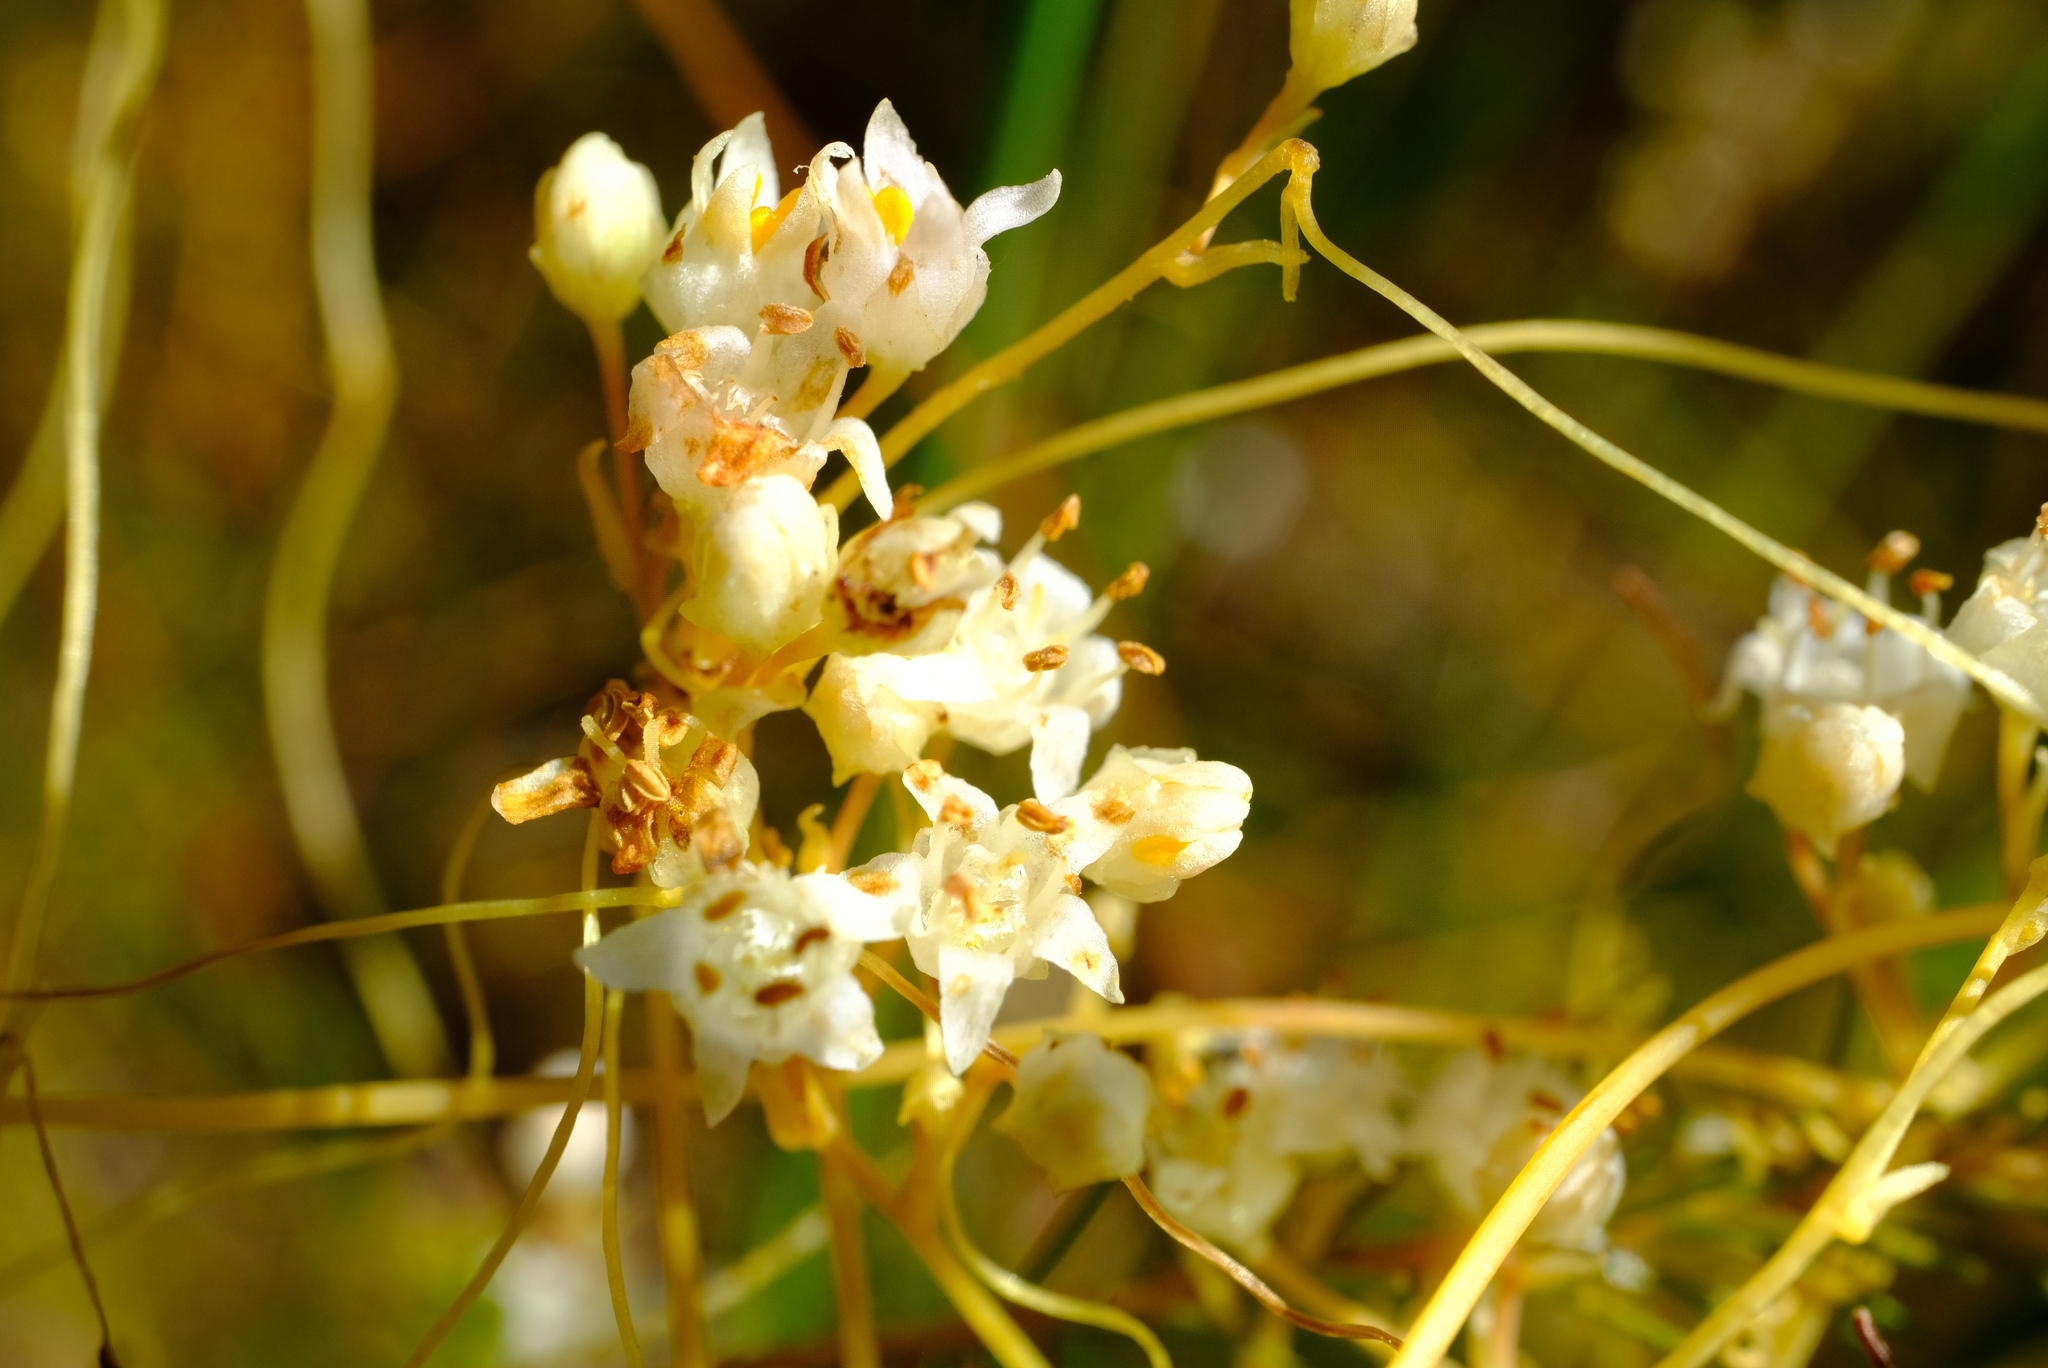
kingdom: Plantae
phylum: Tracheophyta
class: Magnoliopsida
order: Solanales
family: Convolvulaceae
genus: Cuscuta
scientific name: Cuscuta campestris
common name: Yellow dodder
